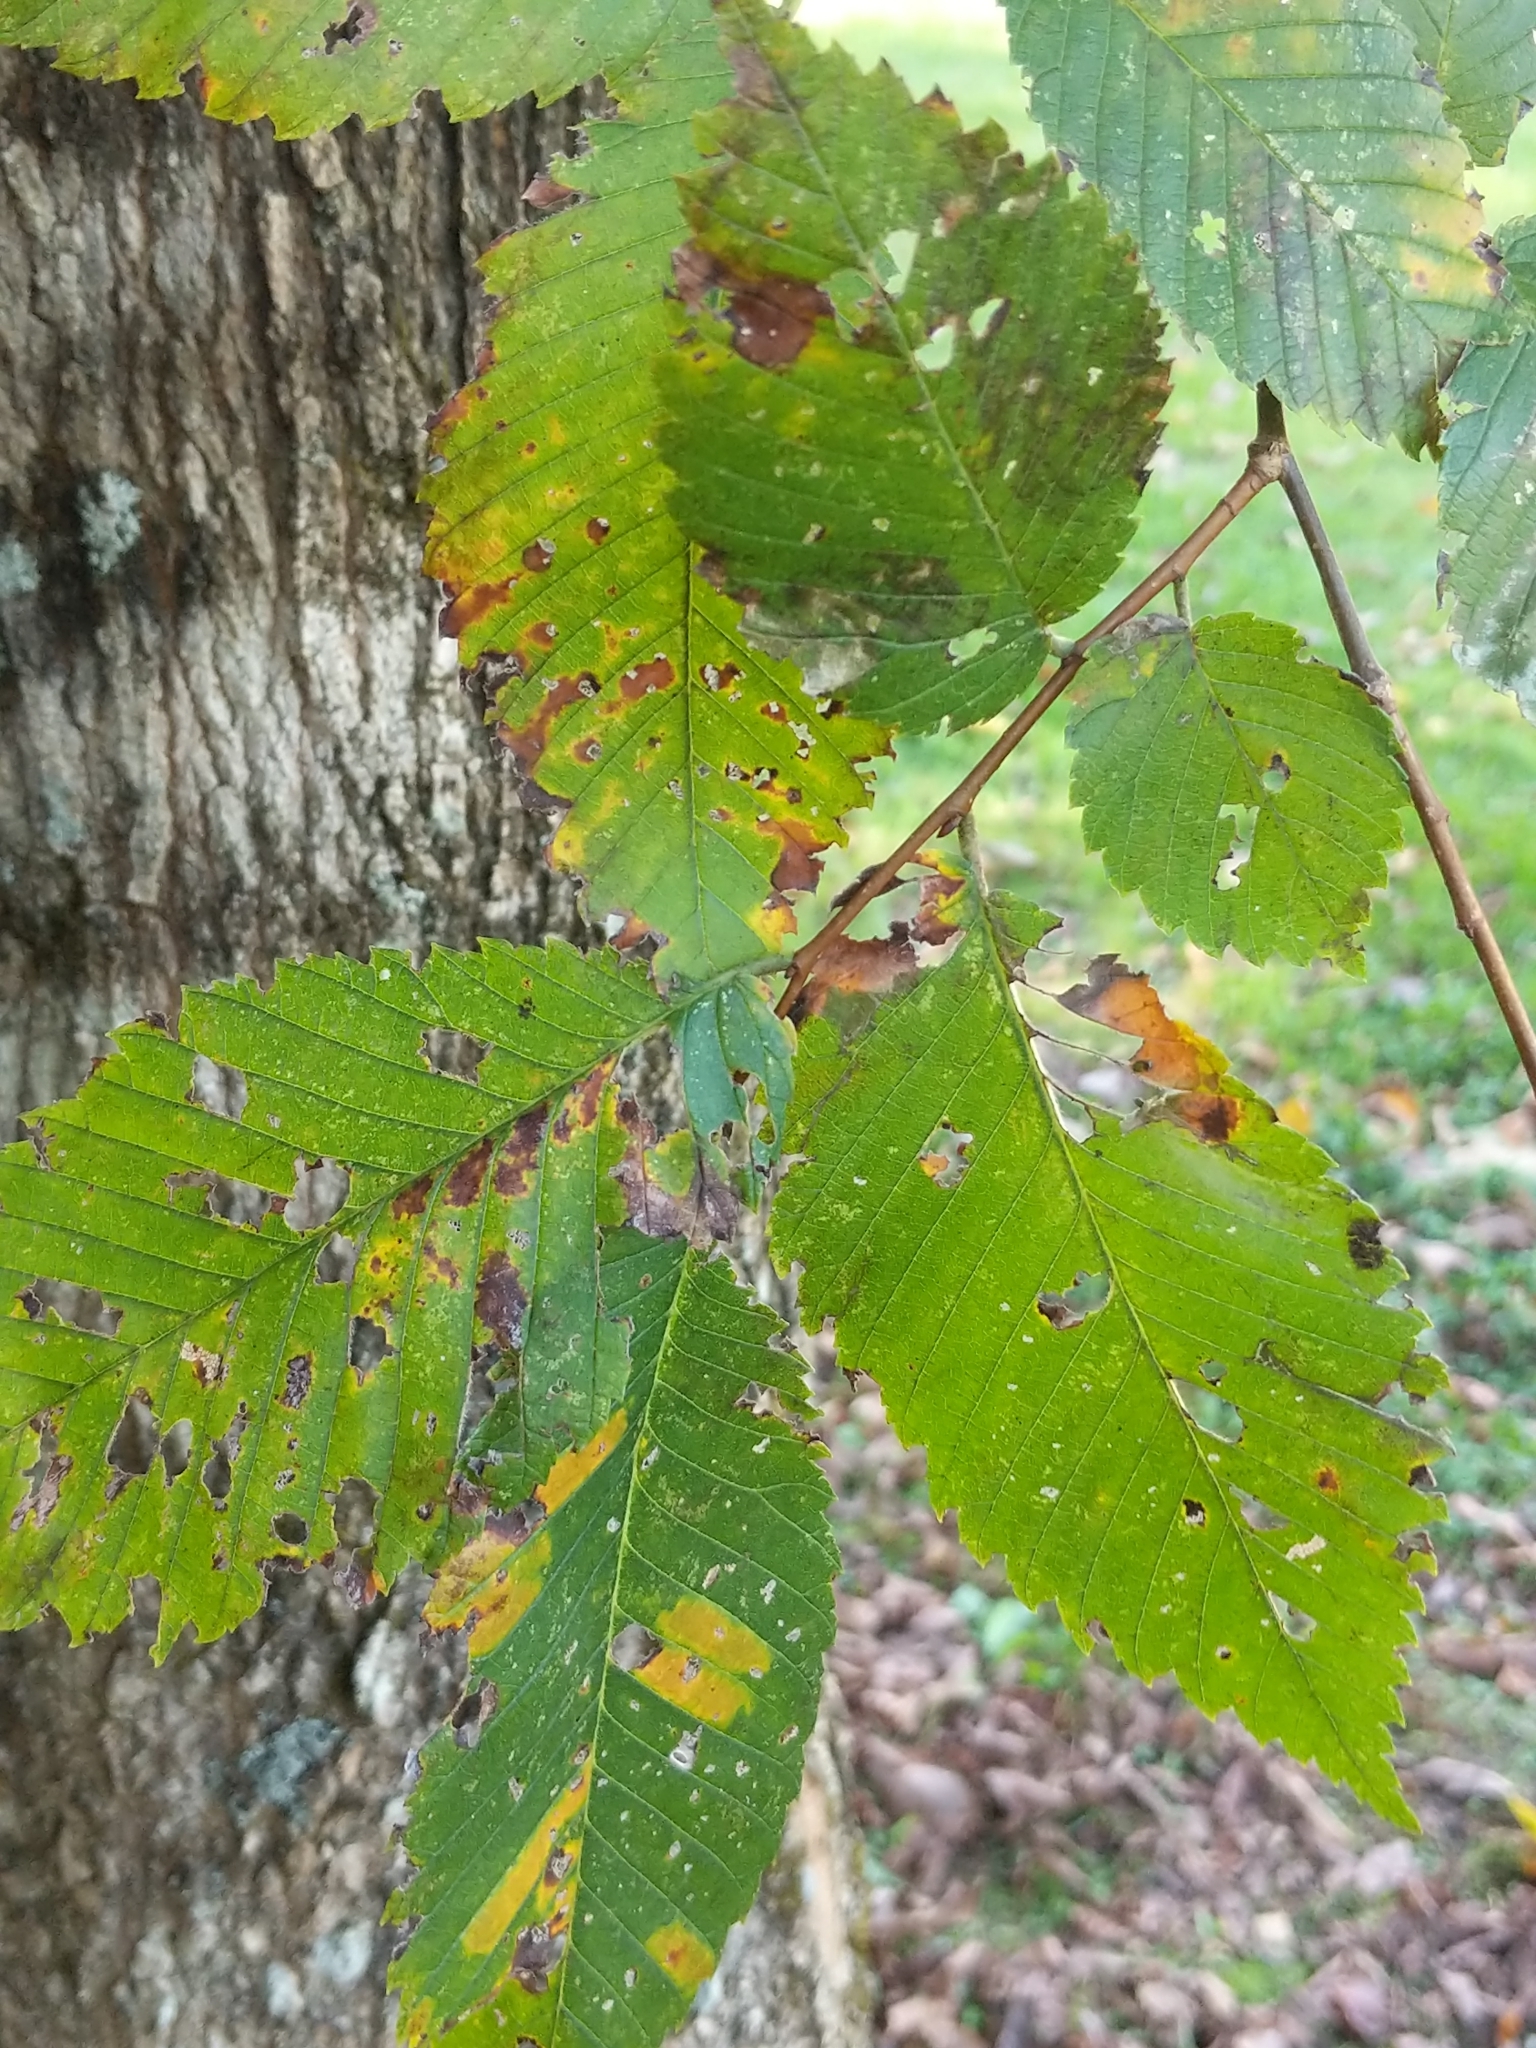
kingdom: Plantae
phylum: Tracheophyta
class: Magnoliopsida
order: Sapindales
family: Sapindaceae
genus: Acer
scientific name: Acer negundo
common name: Ashleaf maple
